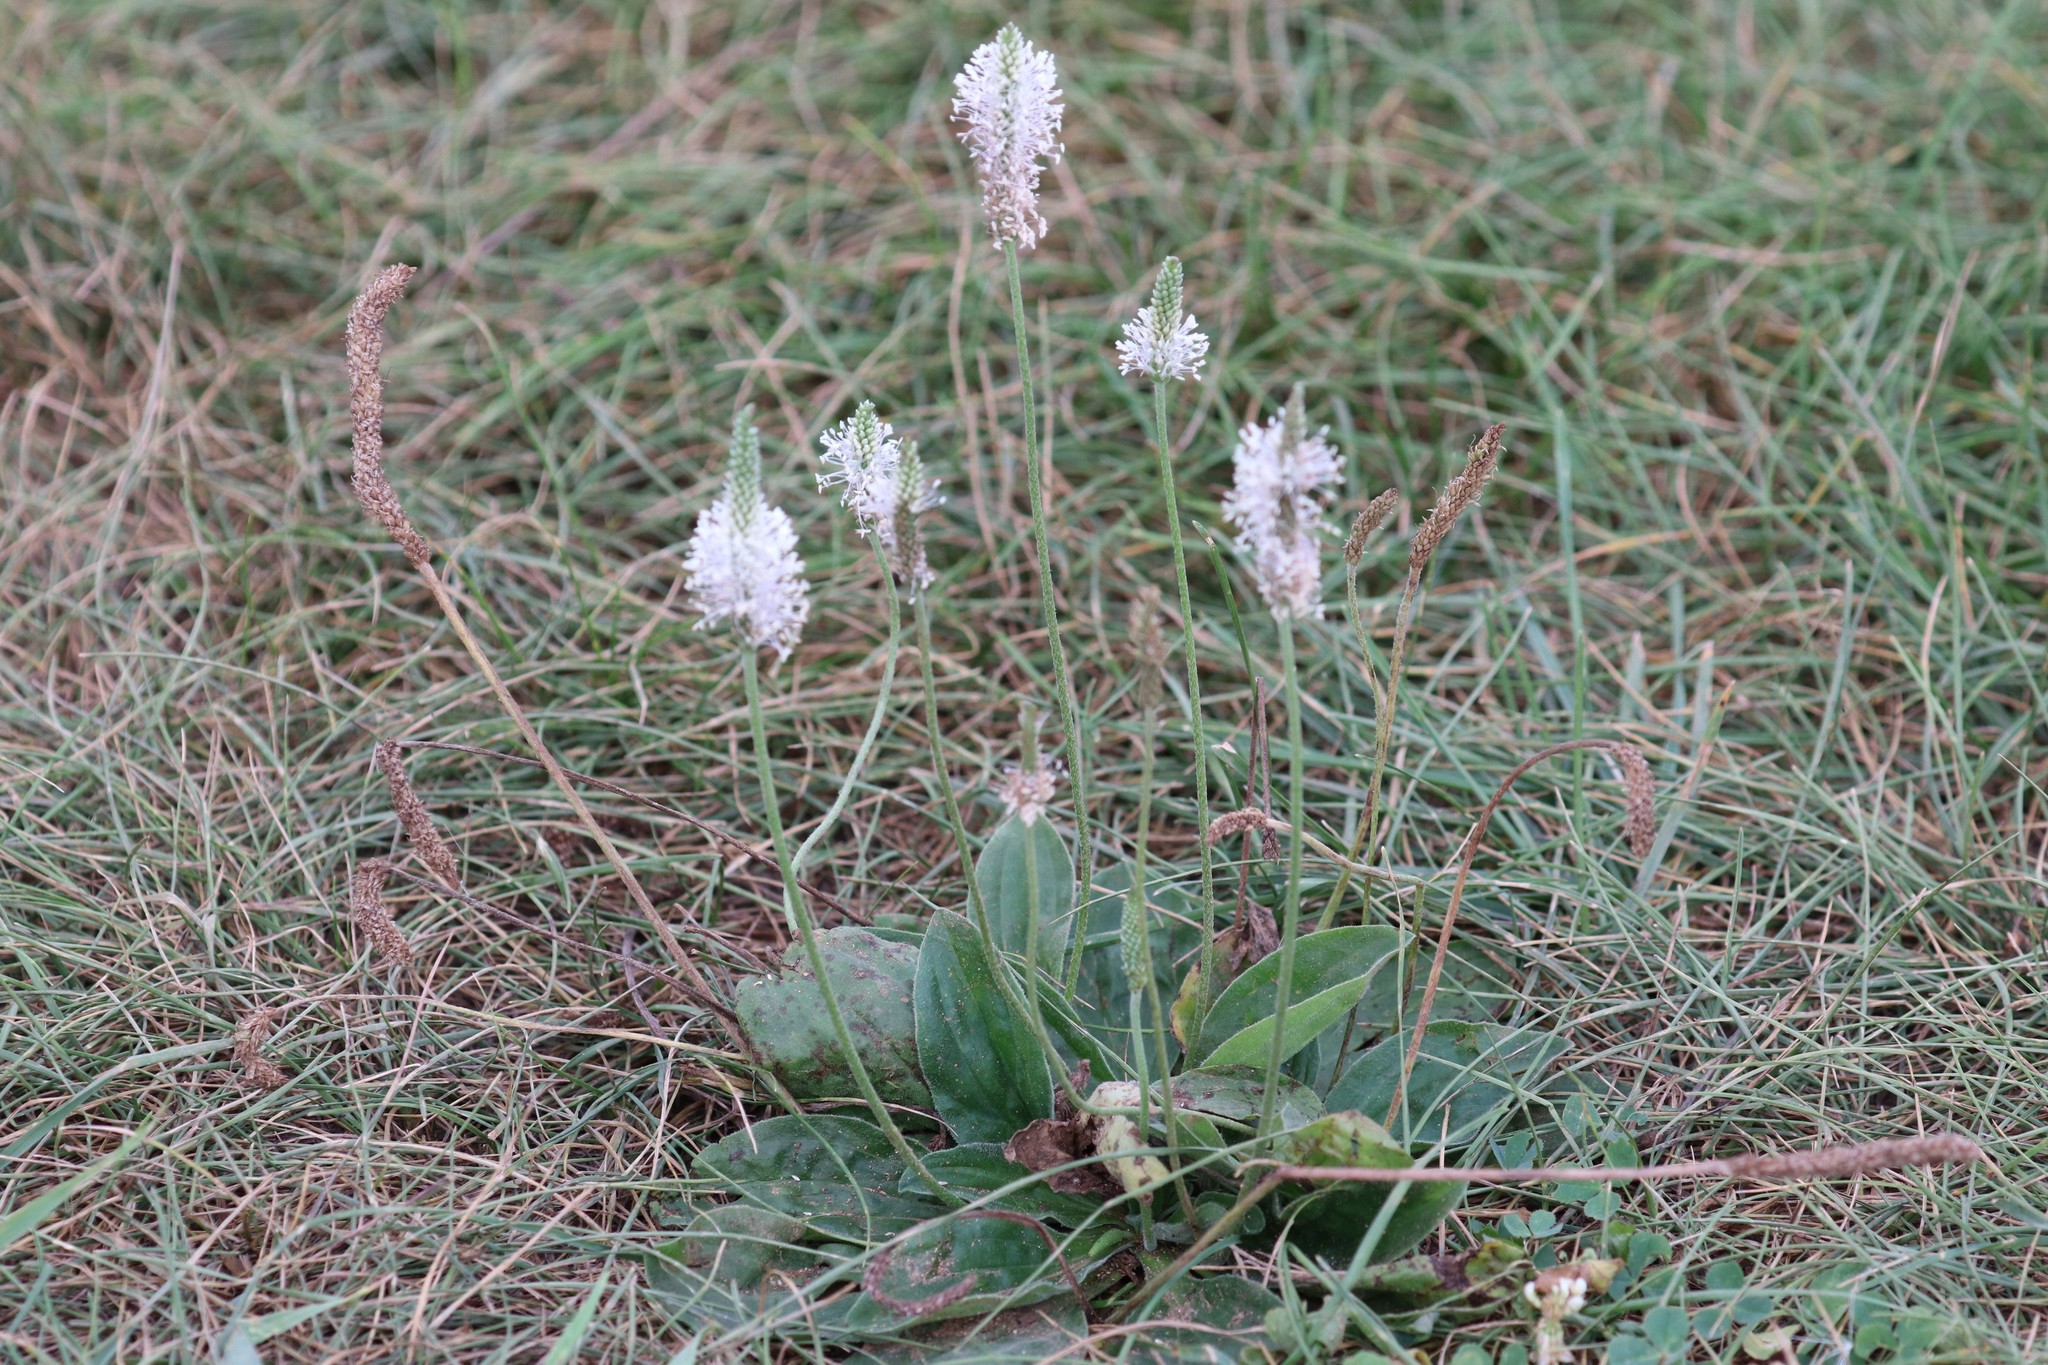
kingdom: Plantae
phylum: Tracheophyta
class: Magnoliopsida
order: Lamiales
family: Plantaginaceae
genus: Plantago
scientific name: Plantago media
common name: Hoary plantain
